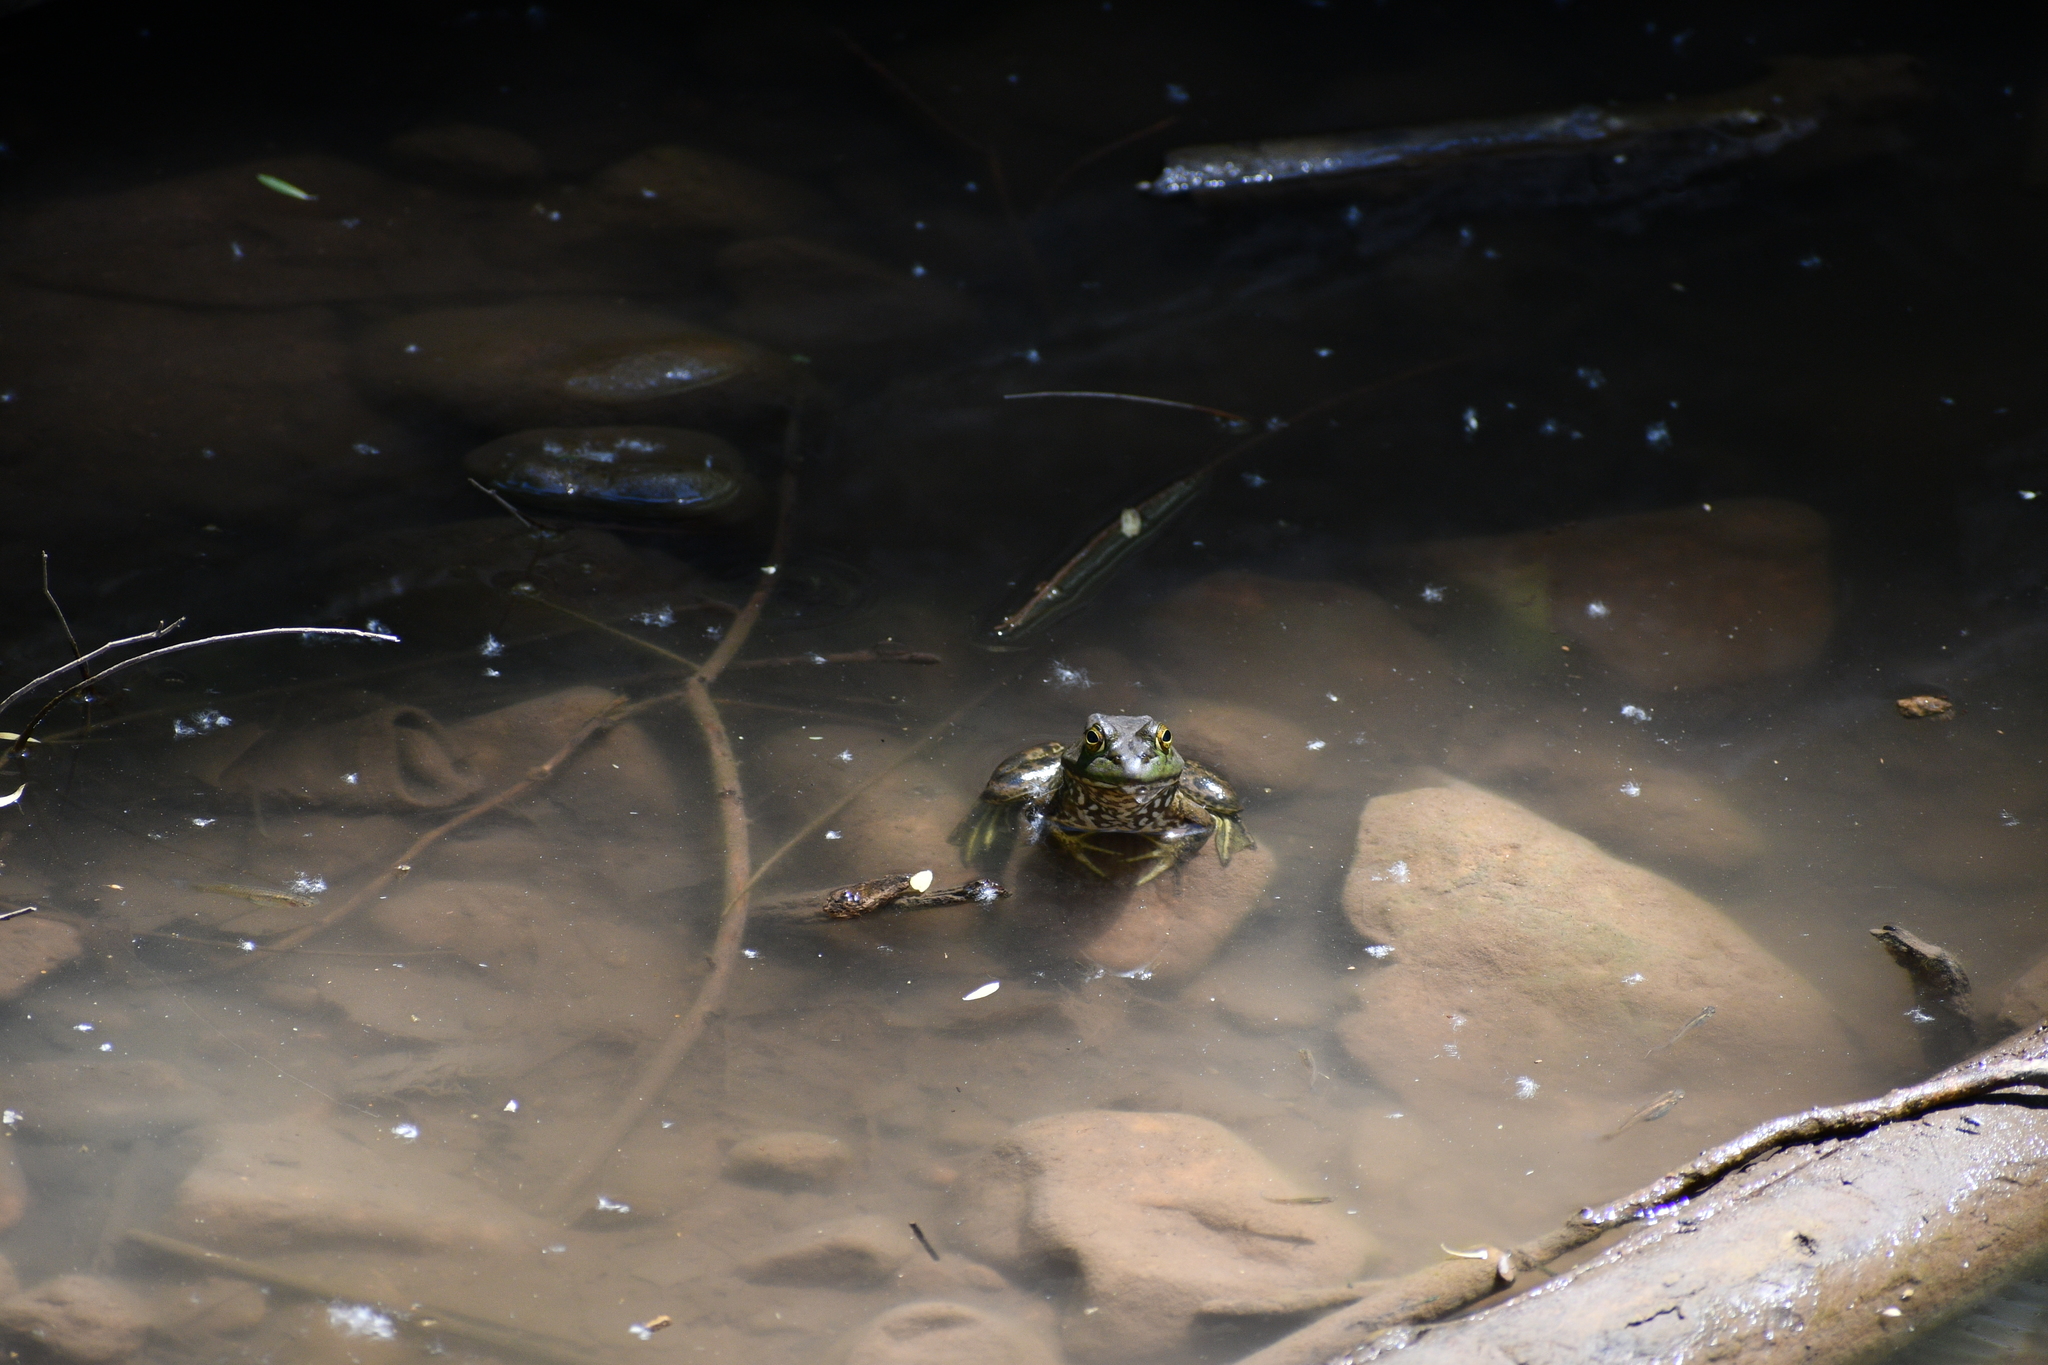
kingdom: Animalia
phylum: Chordata
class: Amphibia
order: Anura
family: Ranidae
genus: Lithobates
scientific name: Lithobates catesbeianus
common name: American bullfrog
